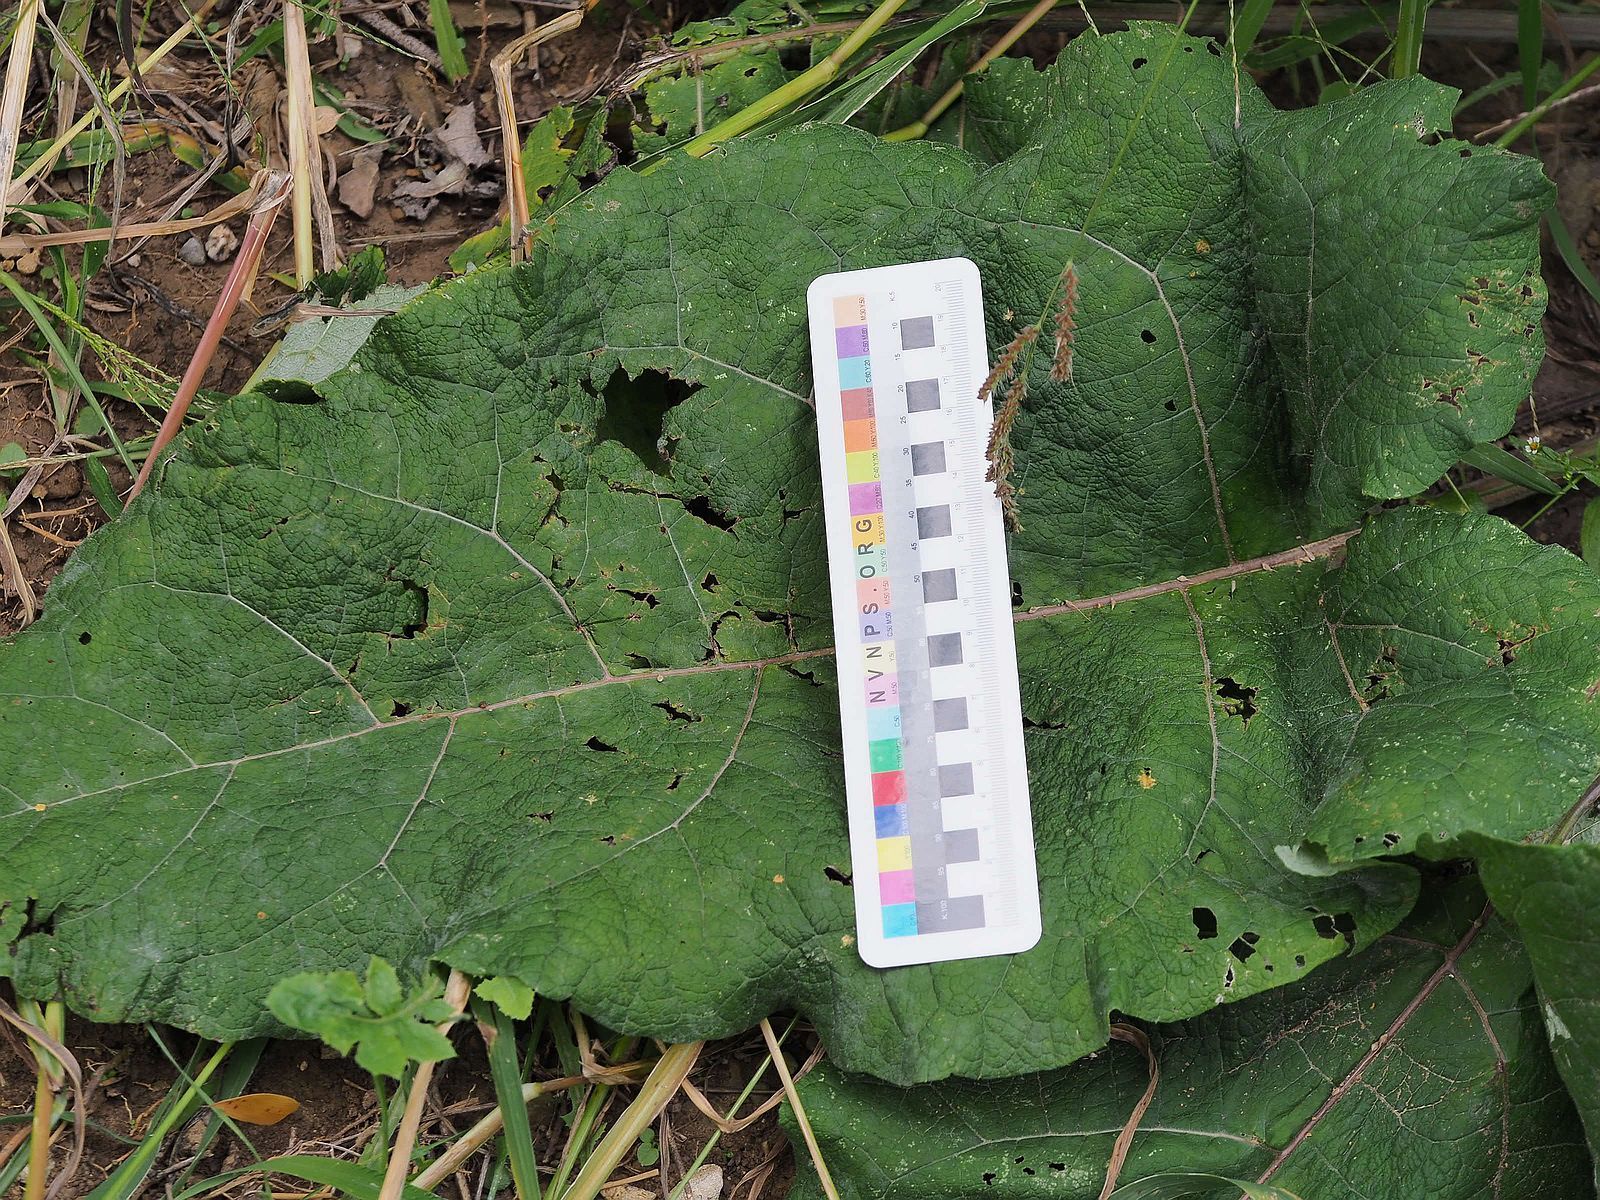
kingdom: Plantae
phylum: Tracheophyta
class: Magnoliopsida
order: Asterales
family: Asteraceae
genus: Arctium
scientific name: Arctium lappa
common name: Greater burdock
